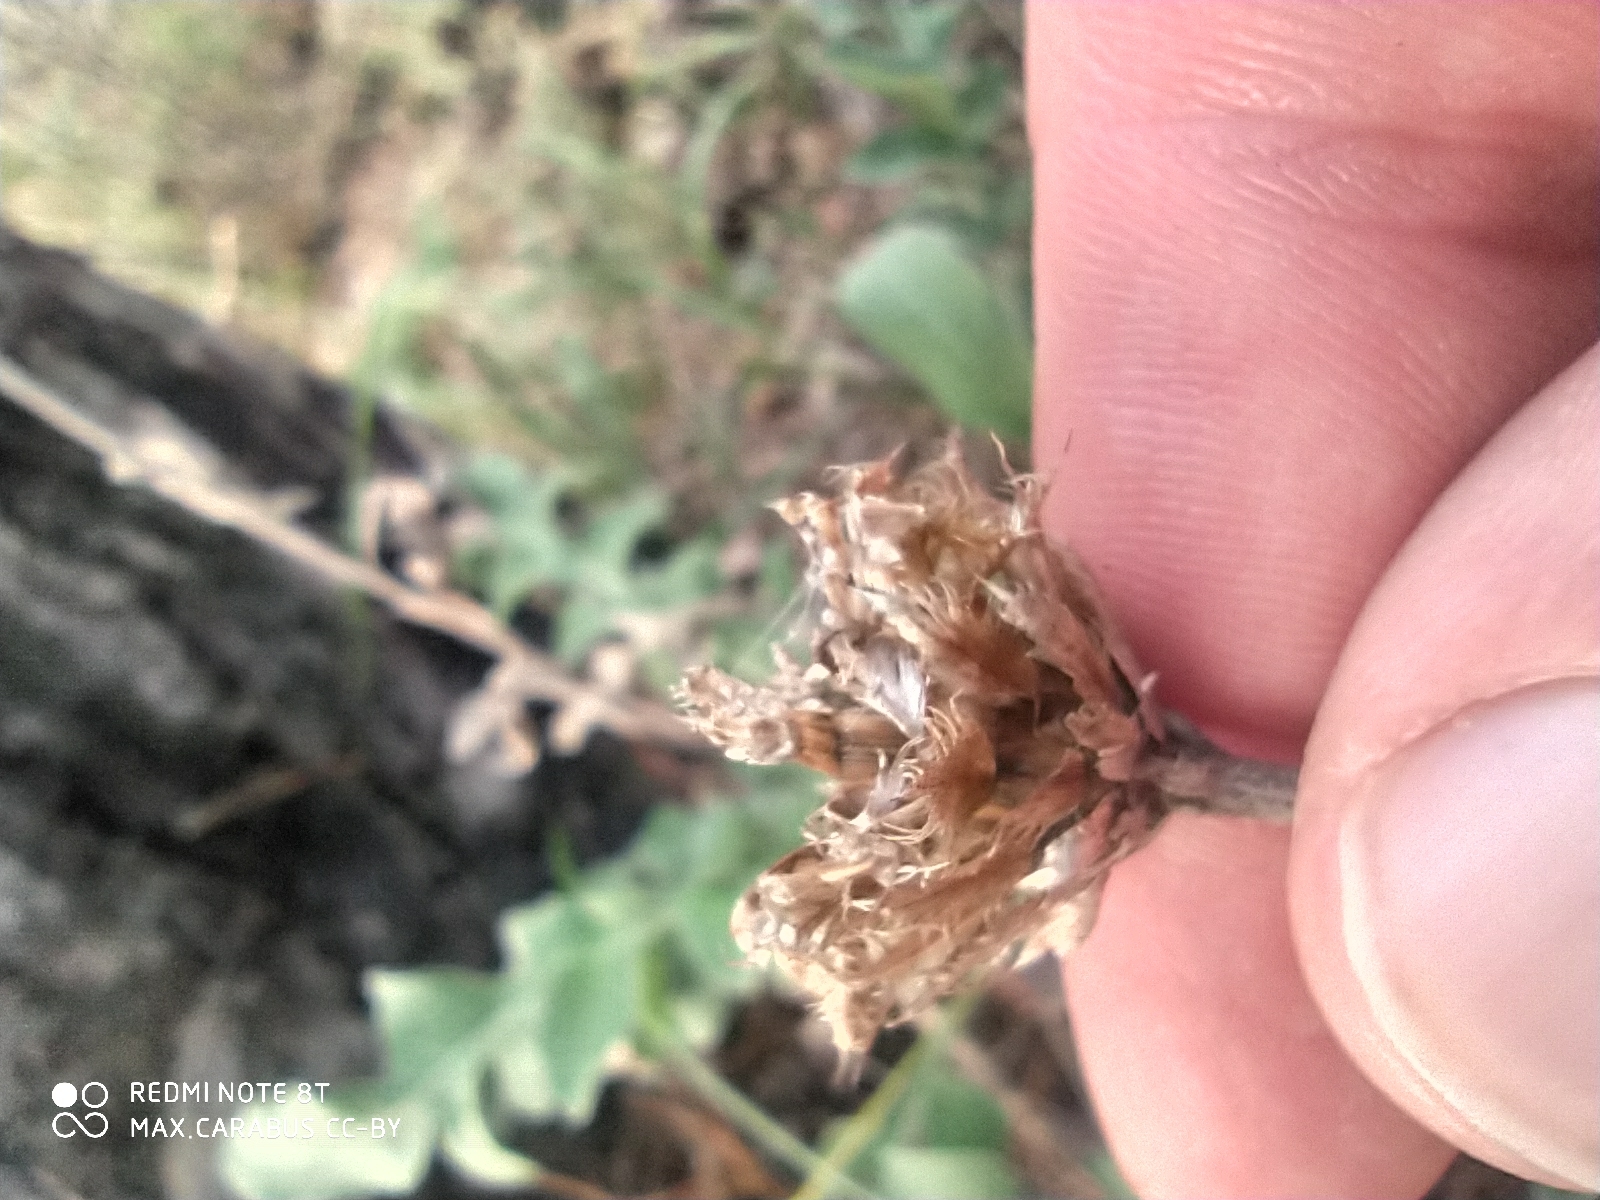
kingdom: Plantae
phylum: Tracheophyta
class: Magnoliopsida
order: Asterales
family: Asteraceae
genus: Psephellus
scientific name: Psephellus sibiricus
